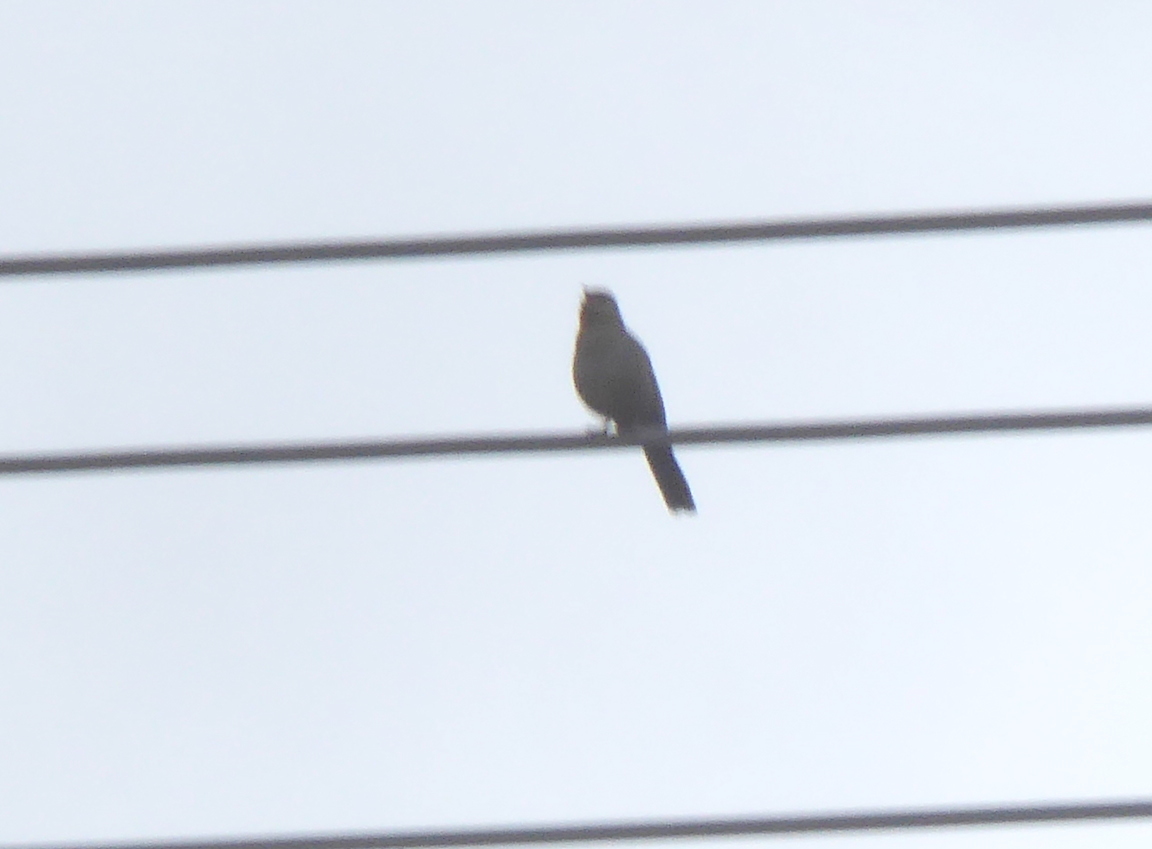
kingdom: Animalia
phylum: Chordata
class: Aves
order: Passeriformes
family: Passerellidae
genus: Melozone
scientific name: Melozone crissalis
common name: California towhee
